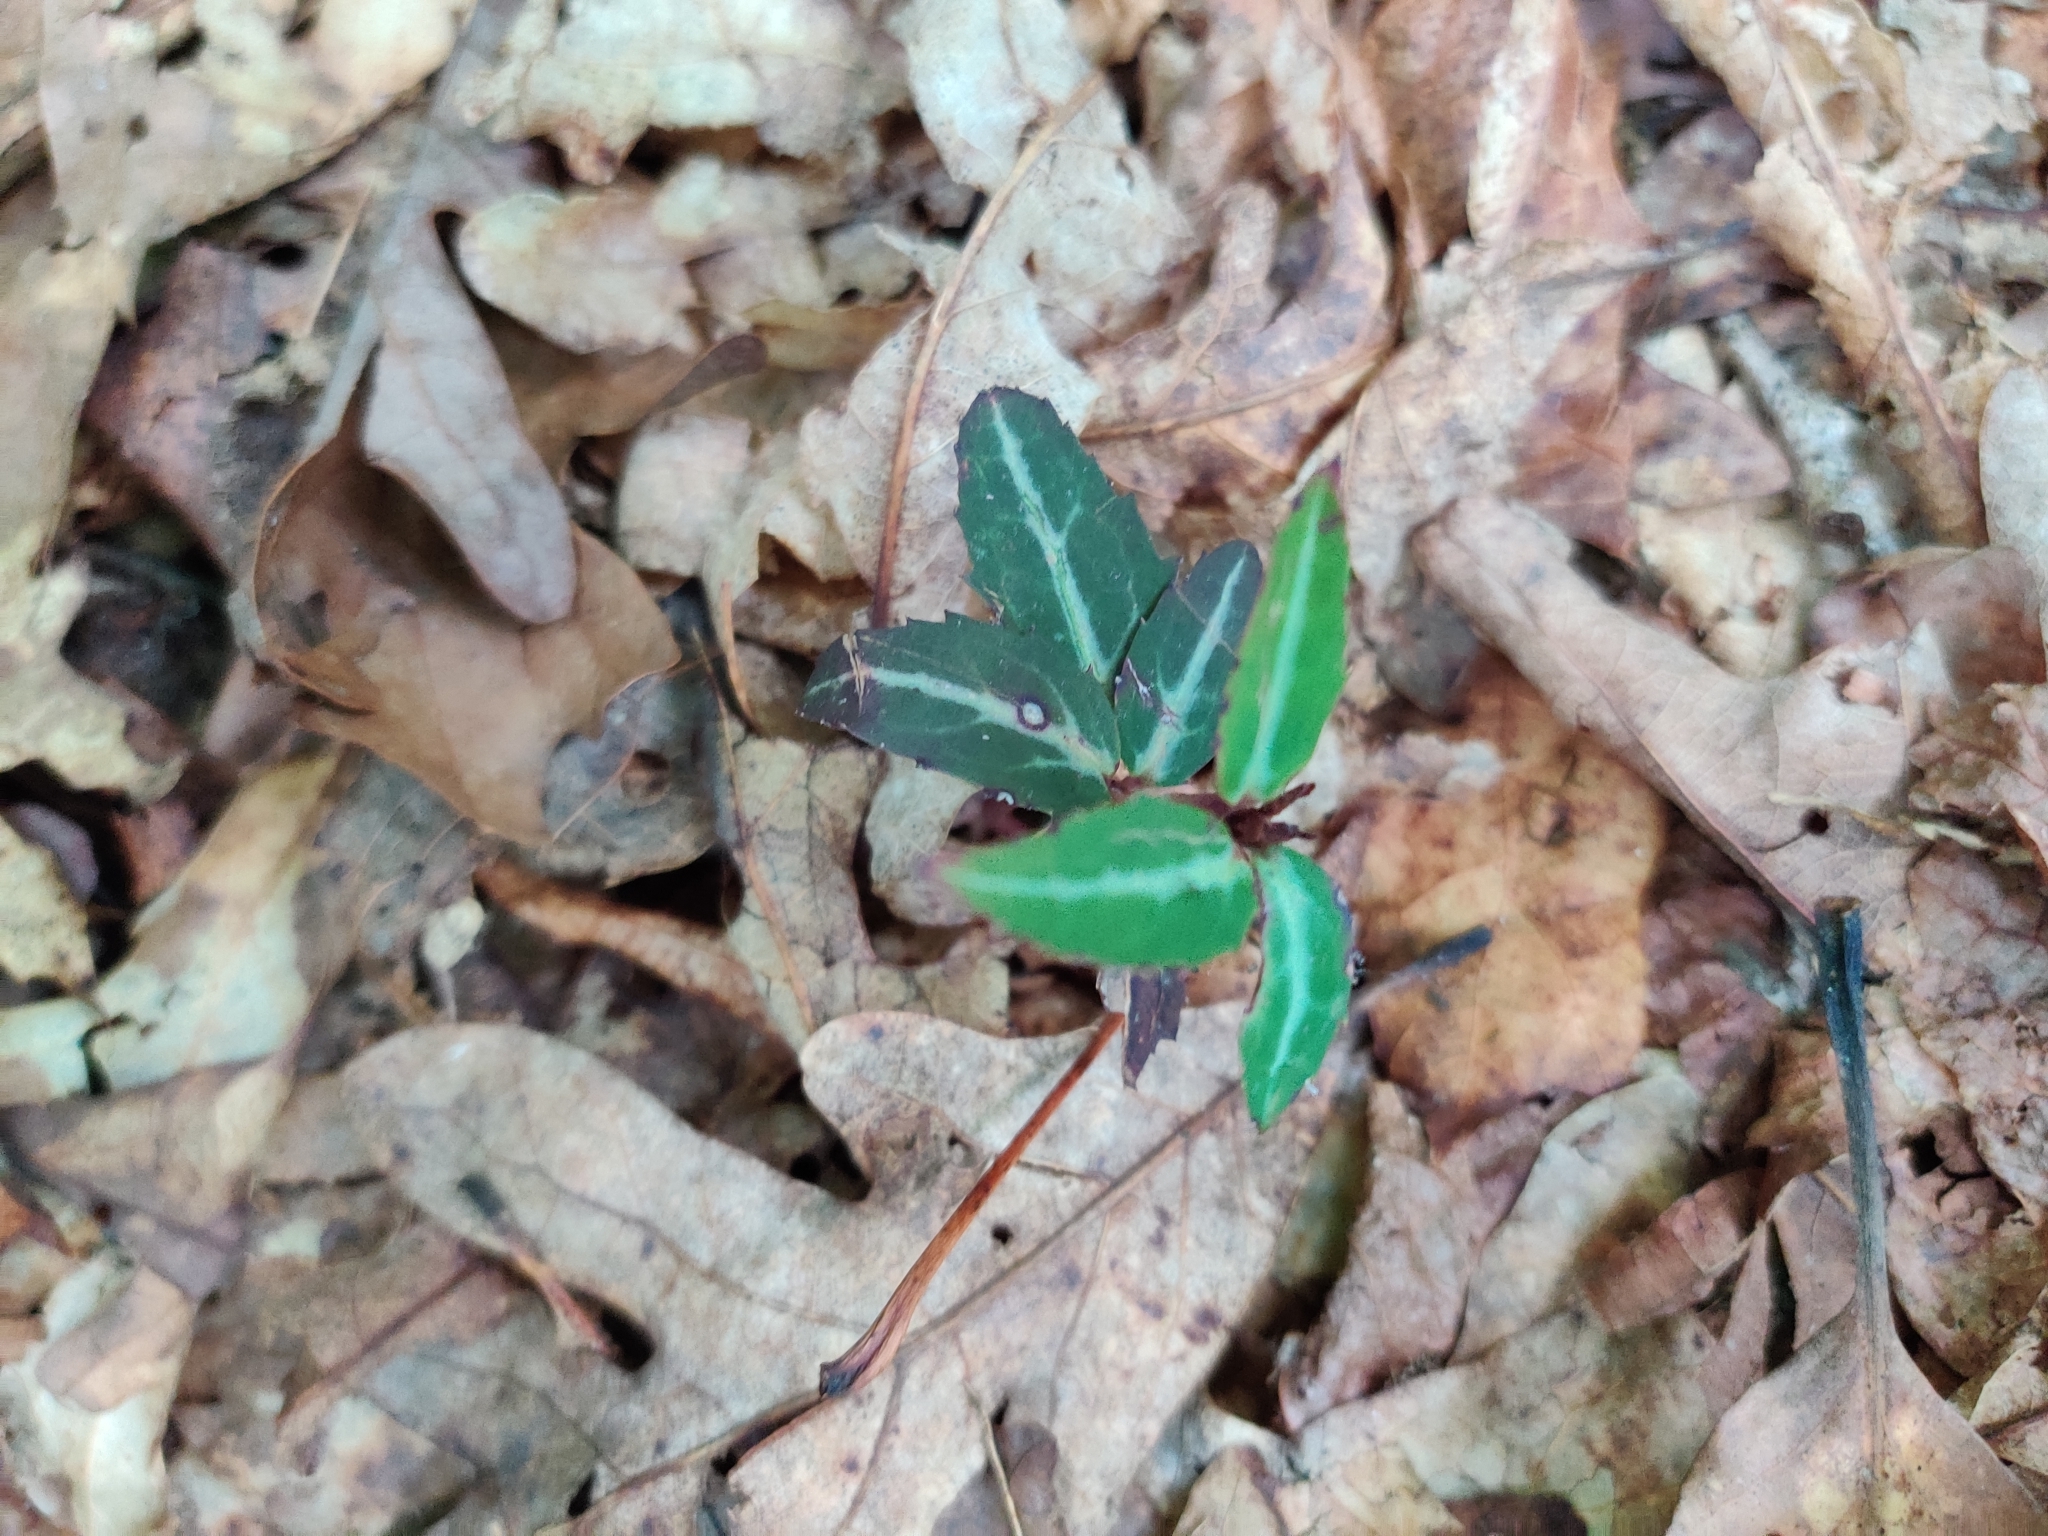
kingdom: Plantae
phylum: Tracheophyta
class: Magnoliopsida
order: Ericales
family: Ericaceae
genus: Chimaphila
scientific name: Chimaphila maculata
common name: Spotted pipsissewa
